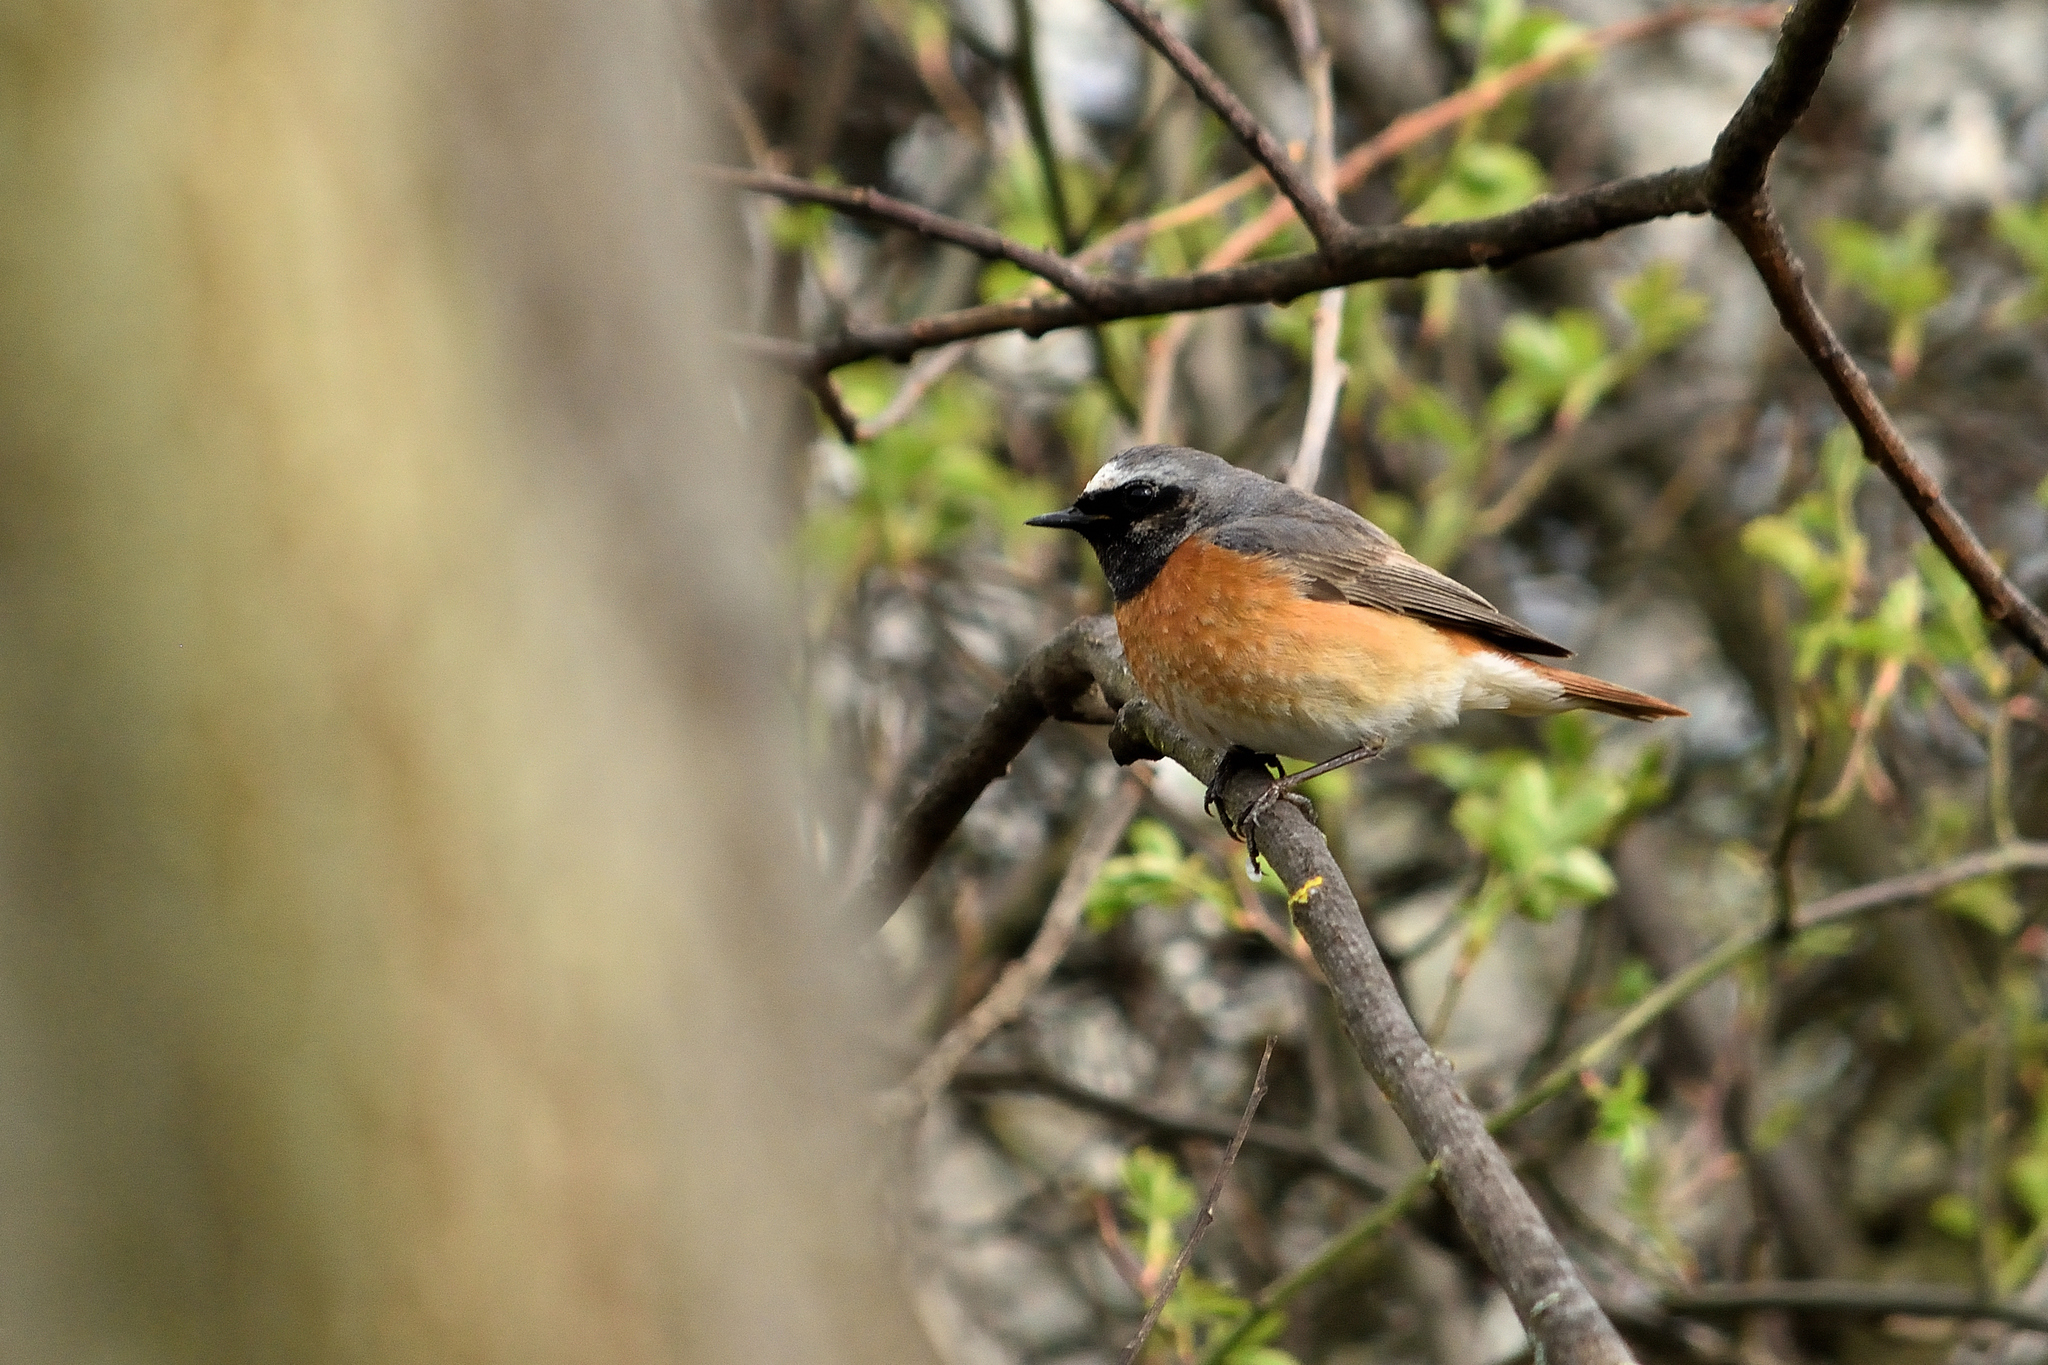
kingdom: Animalia
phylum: Chordata
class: Aves
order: Passeriformes
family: Muscicapidae
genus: Phoenicurus
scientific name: Phoenicurus phoenicurus
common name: Common redstart
